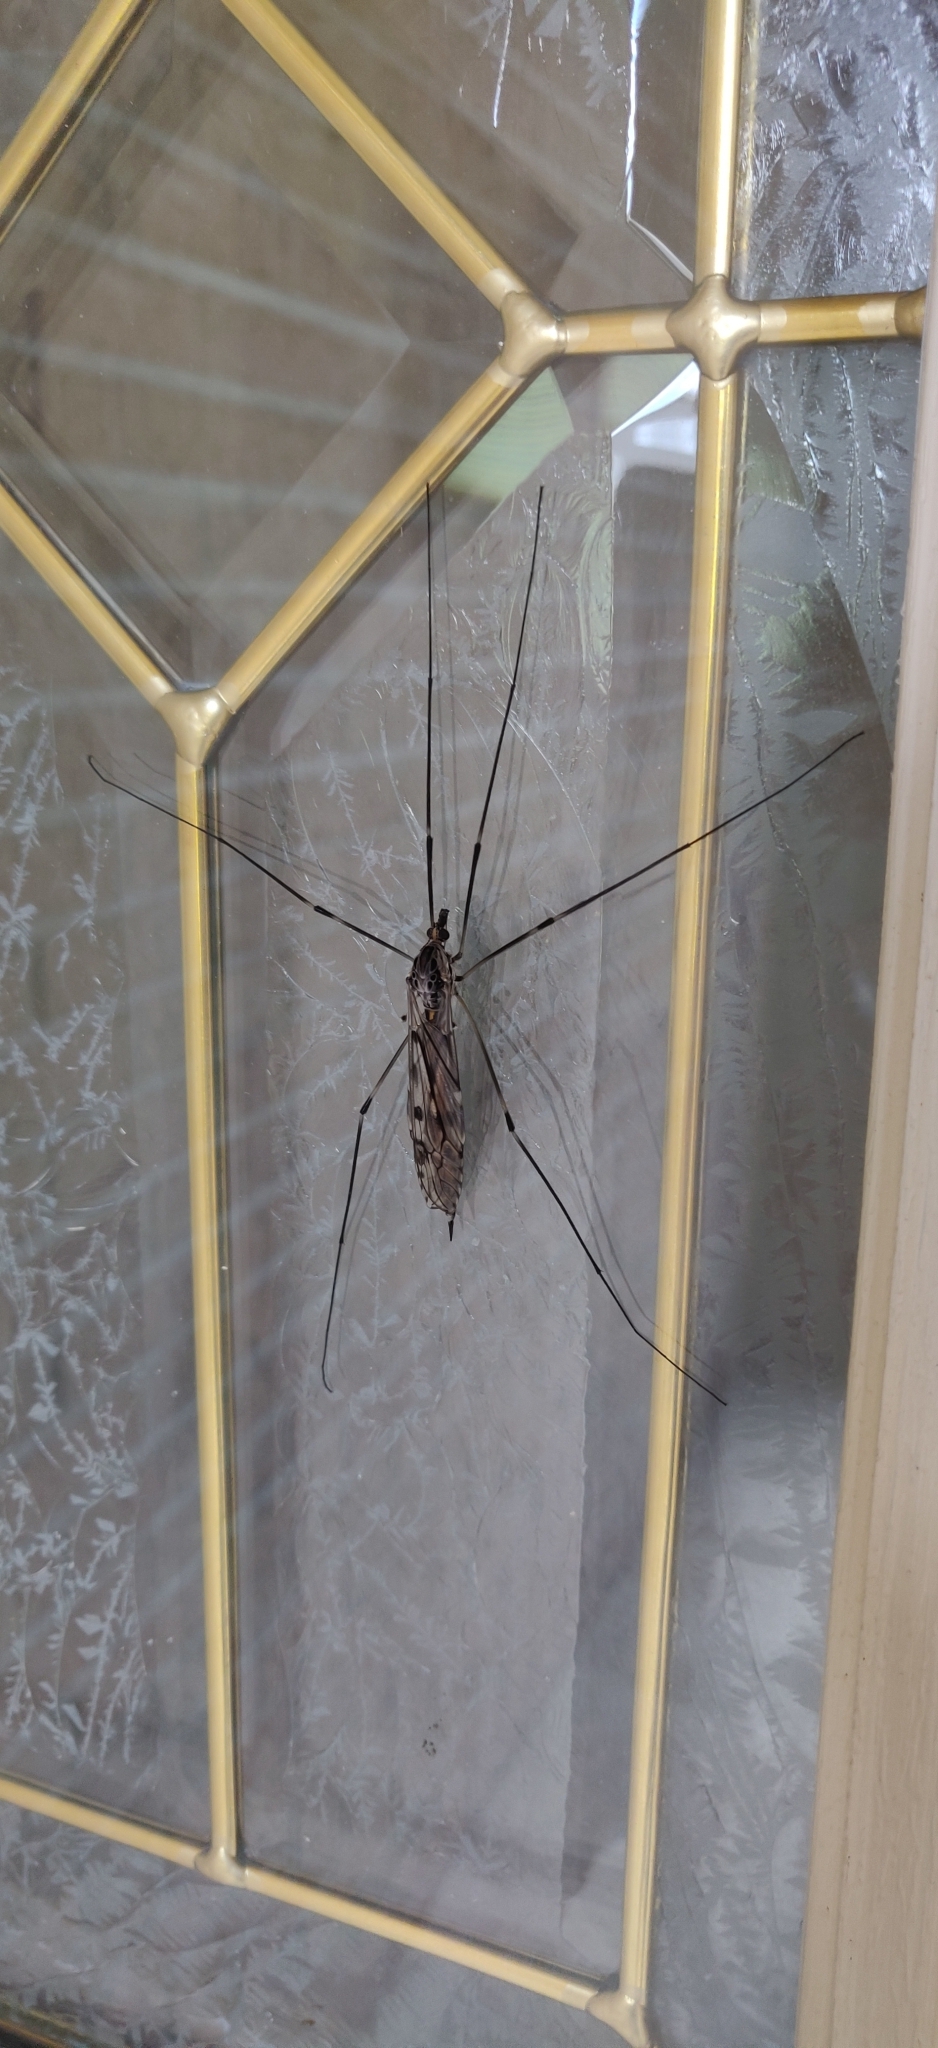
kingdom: Animalia
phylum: Arthropoda
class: Insecta
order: Diptera
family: Tipulidae
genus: Tipula
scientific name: Tipula abdominalis
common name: Giant crane fly
